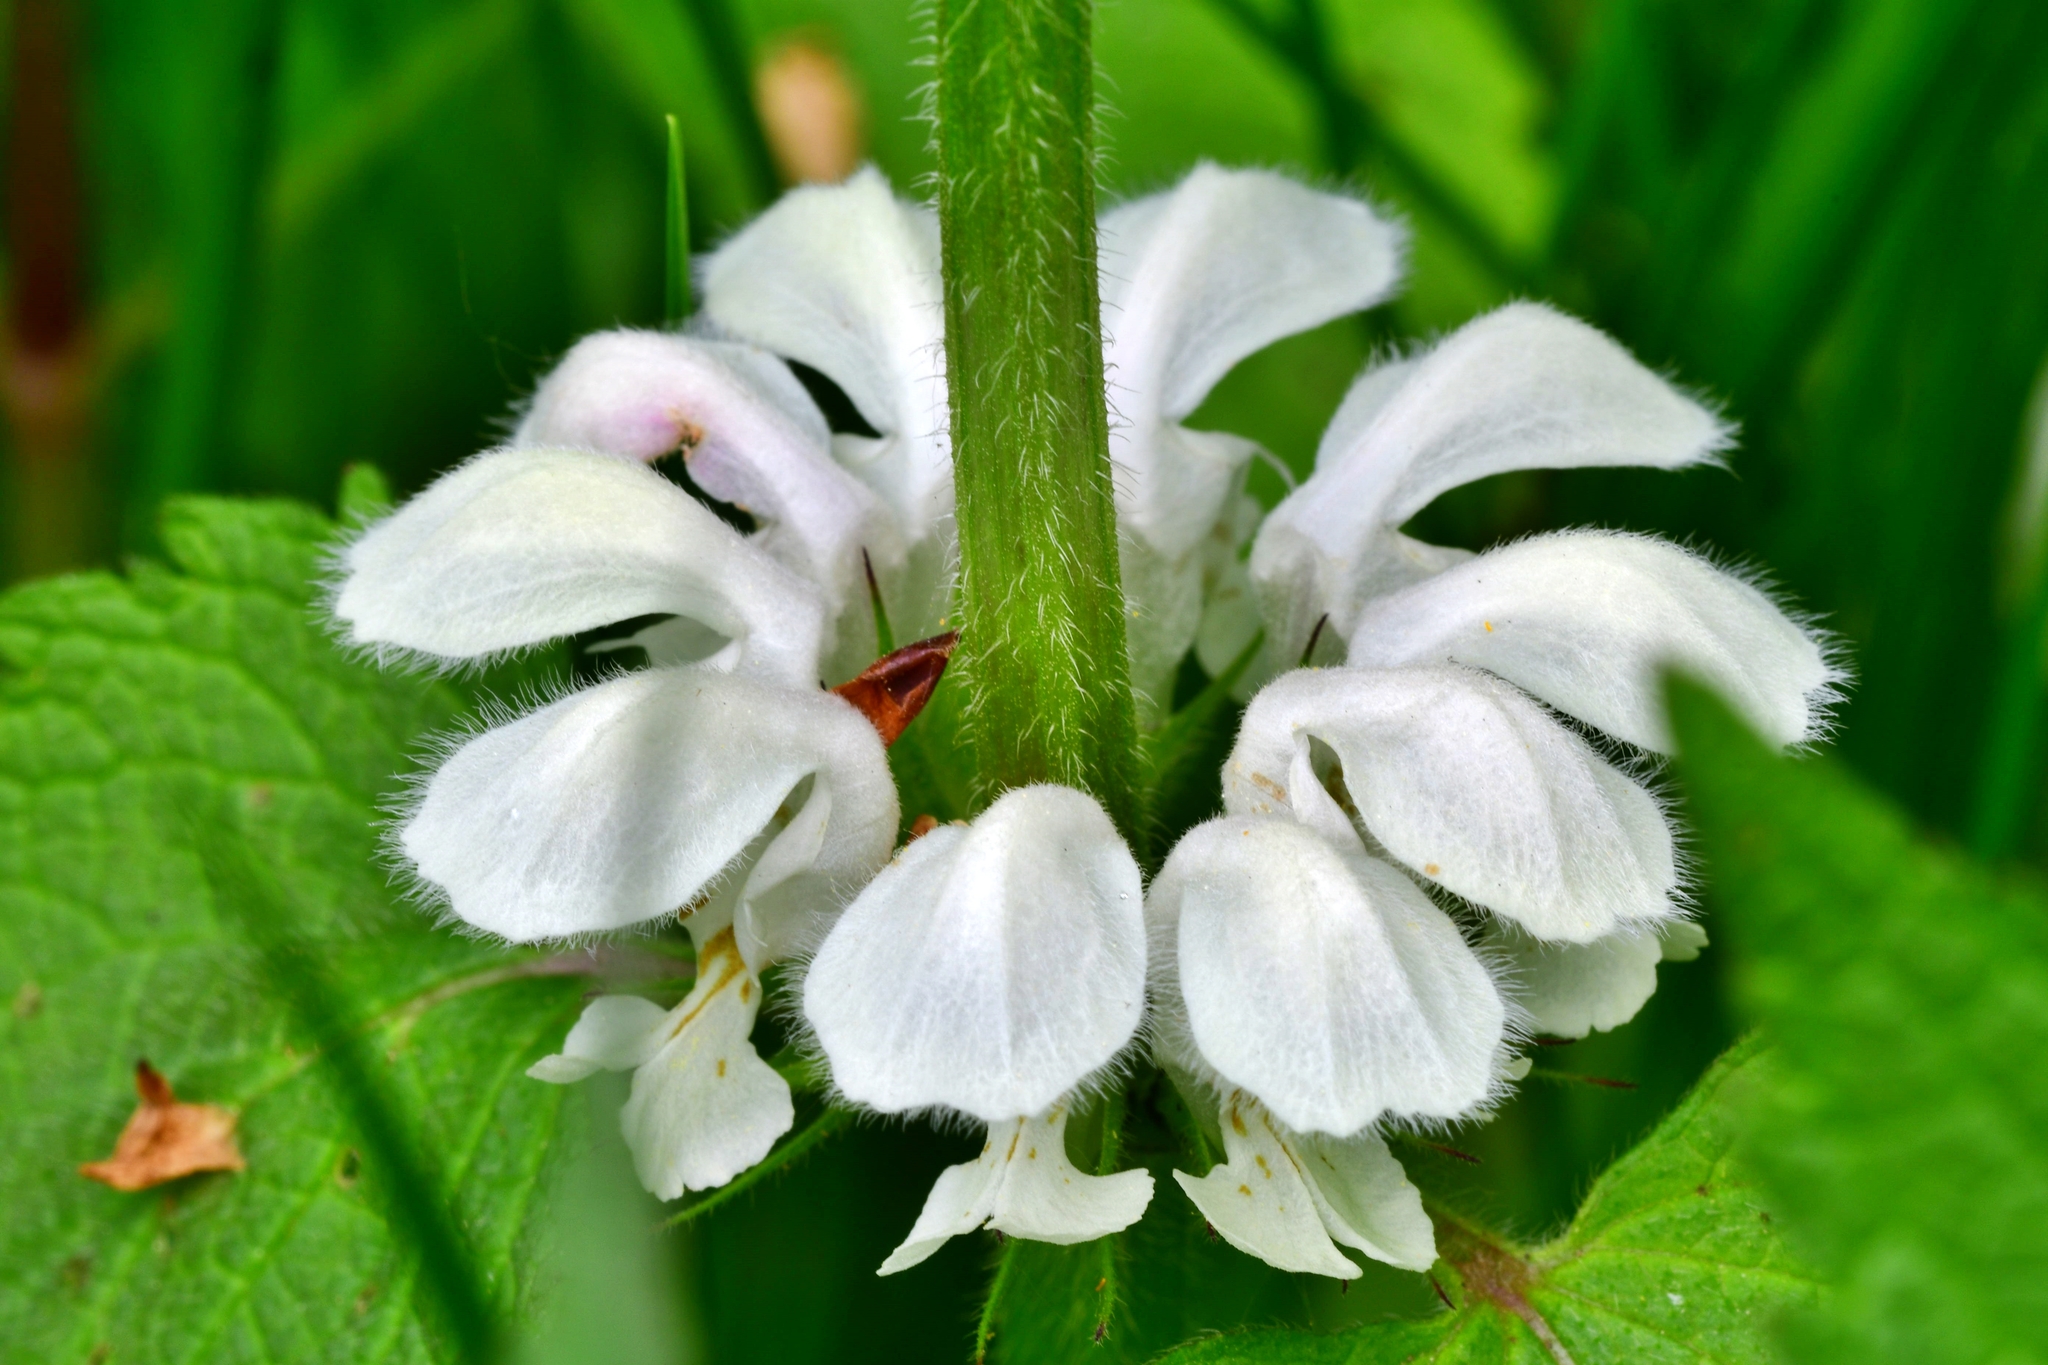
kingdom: Plantae
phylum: Tracheophyta
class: Magnoliopsida
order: Lamiales
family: Lamiaceae
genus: Lamium
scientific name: Lamium album
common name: White dead-nettle
